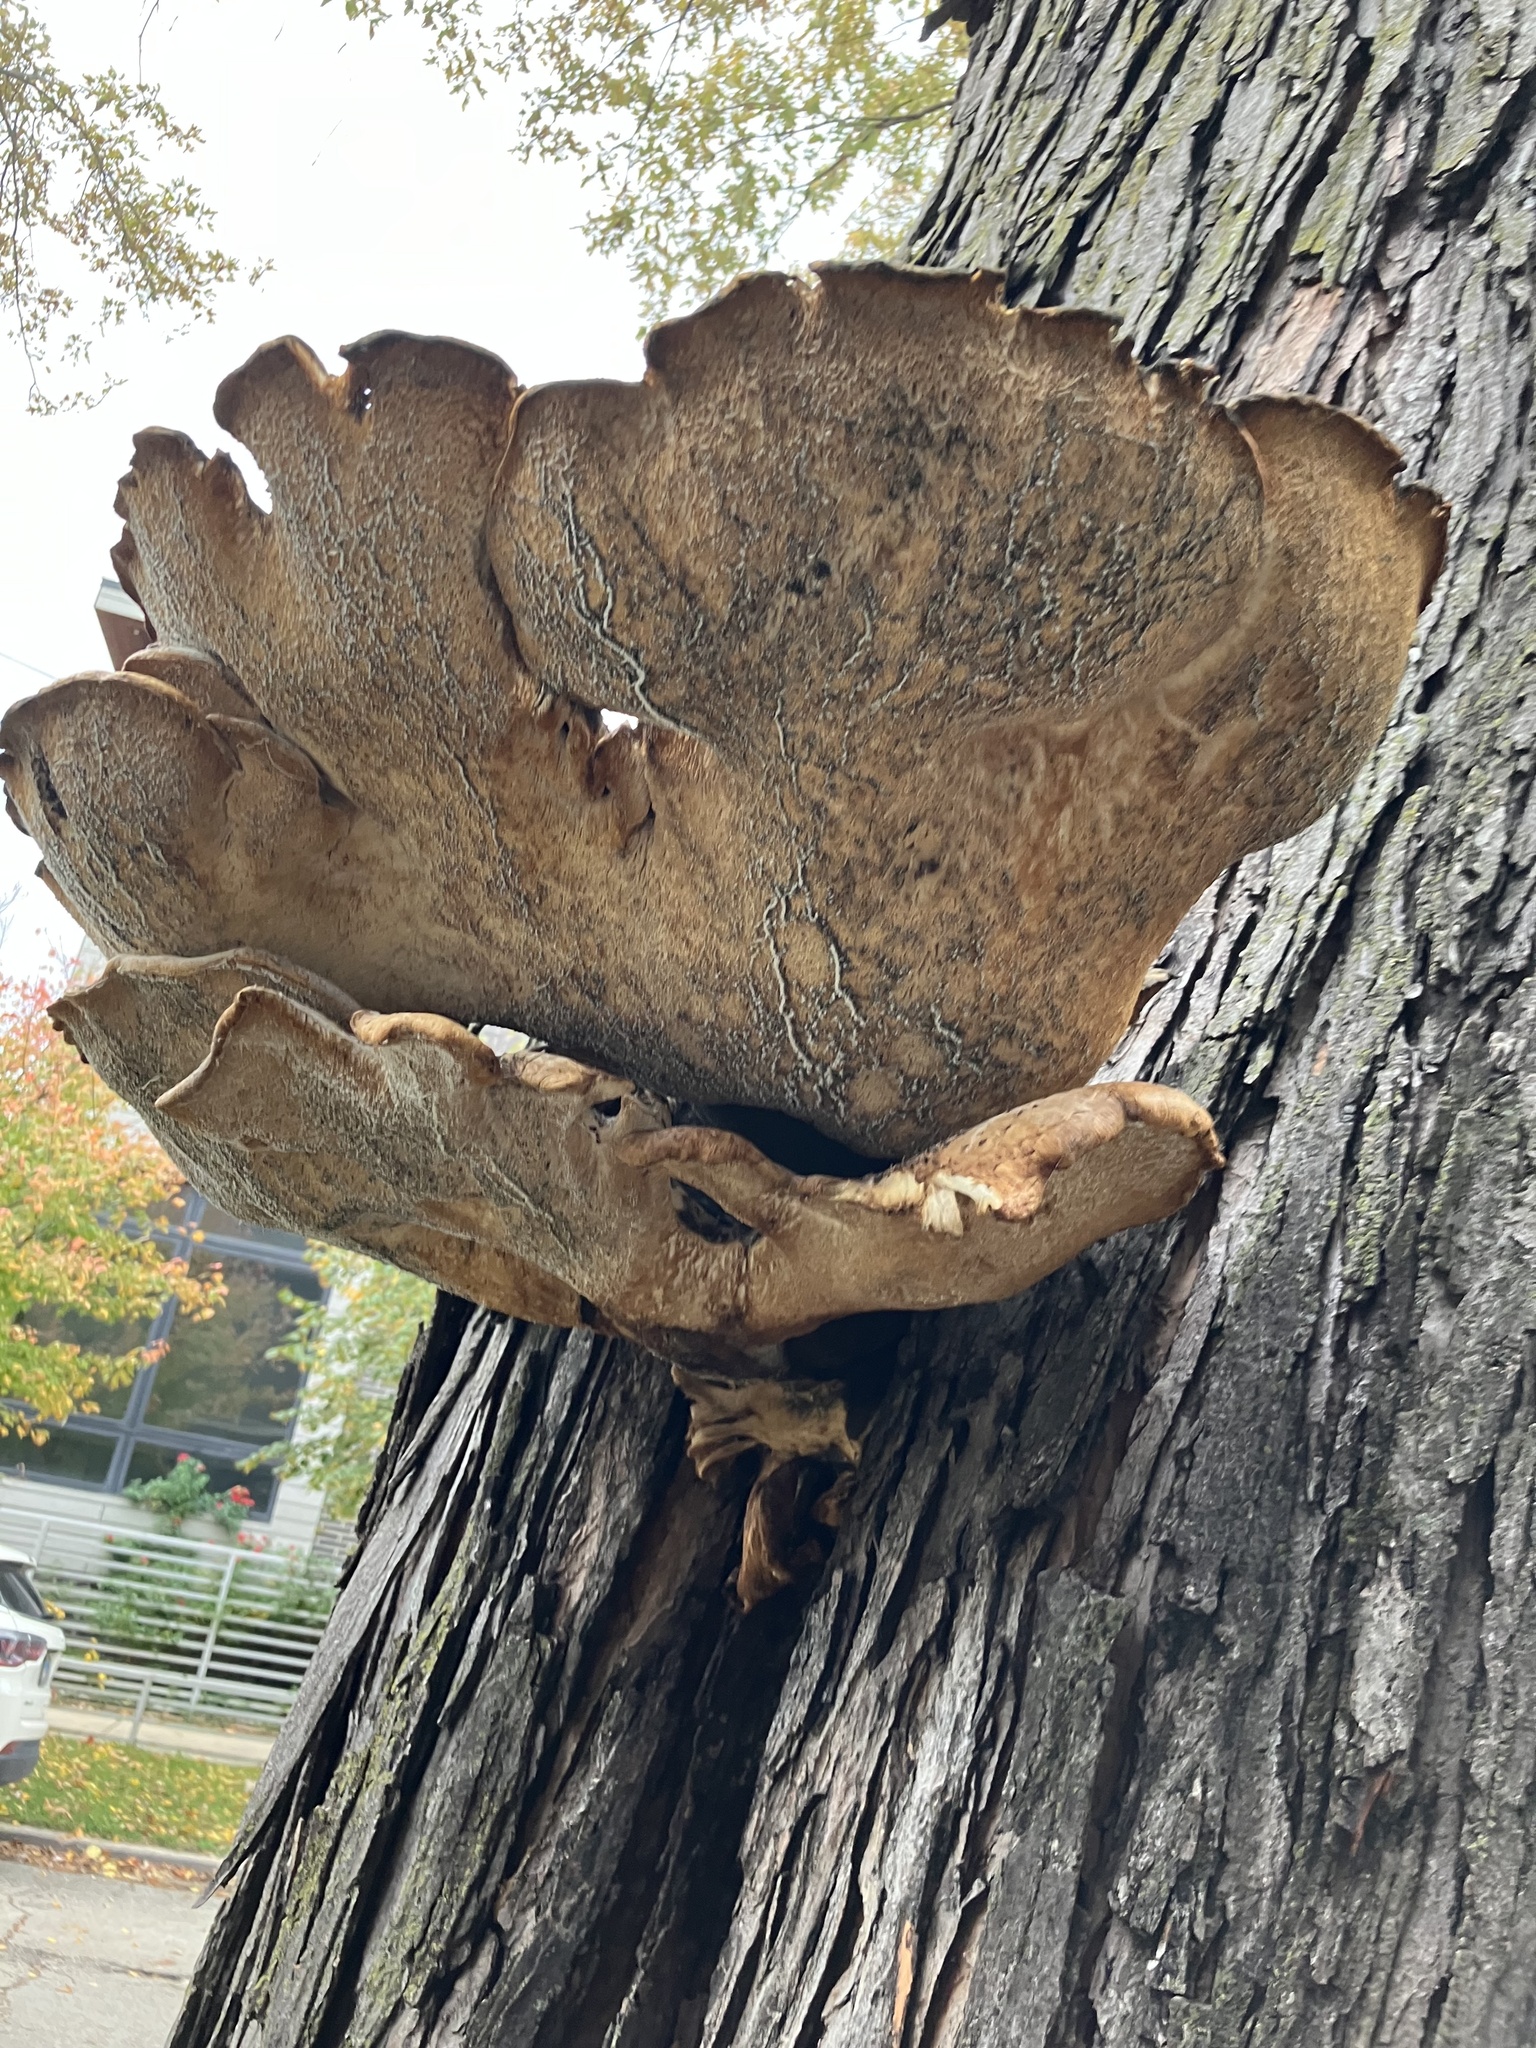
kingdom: Fungi
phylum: Basidiomycota
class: Agaricomycetes
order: Polyporales
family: Polyporaceae
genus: Cerioporus
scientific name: Cerioporus squamosus
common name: Dryad's saddle
